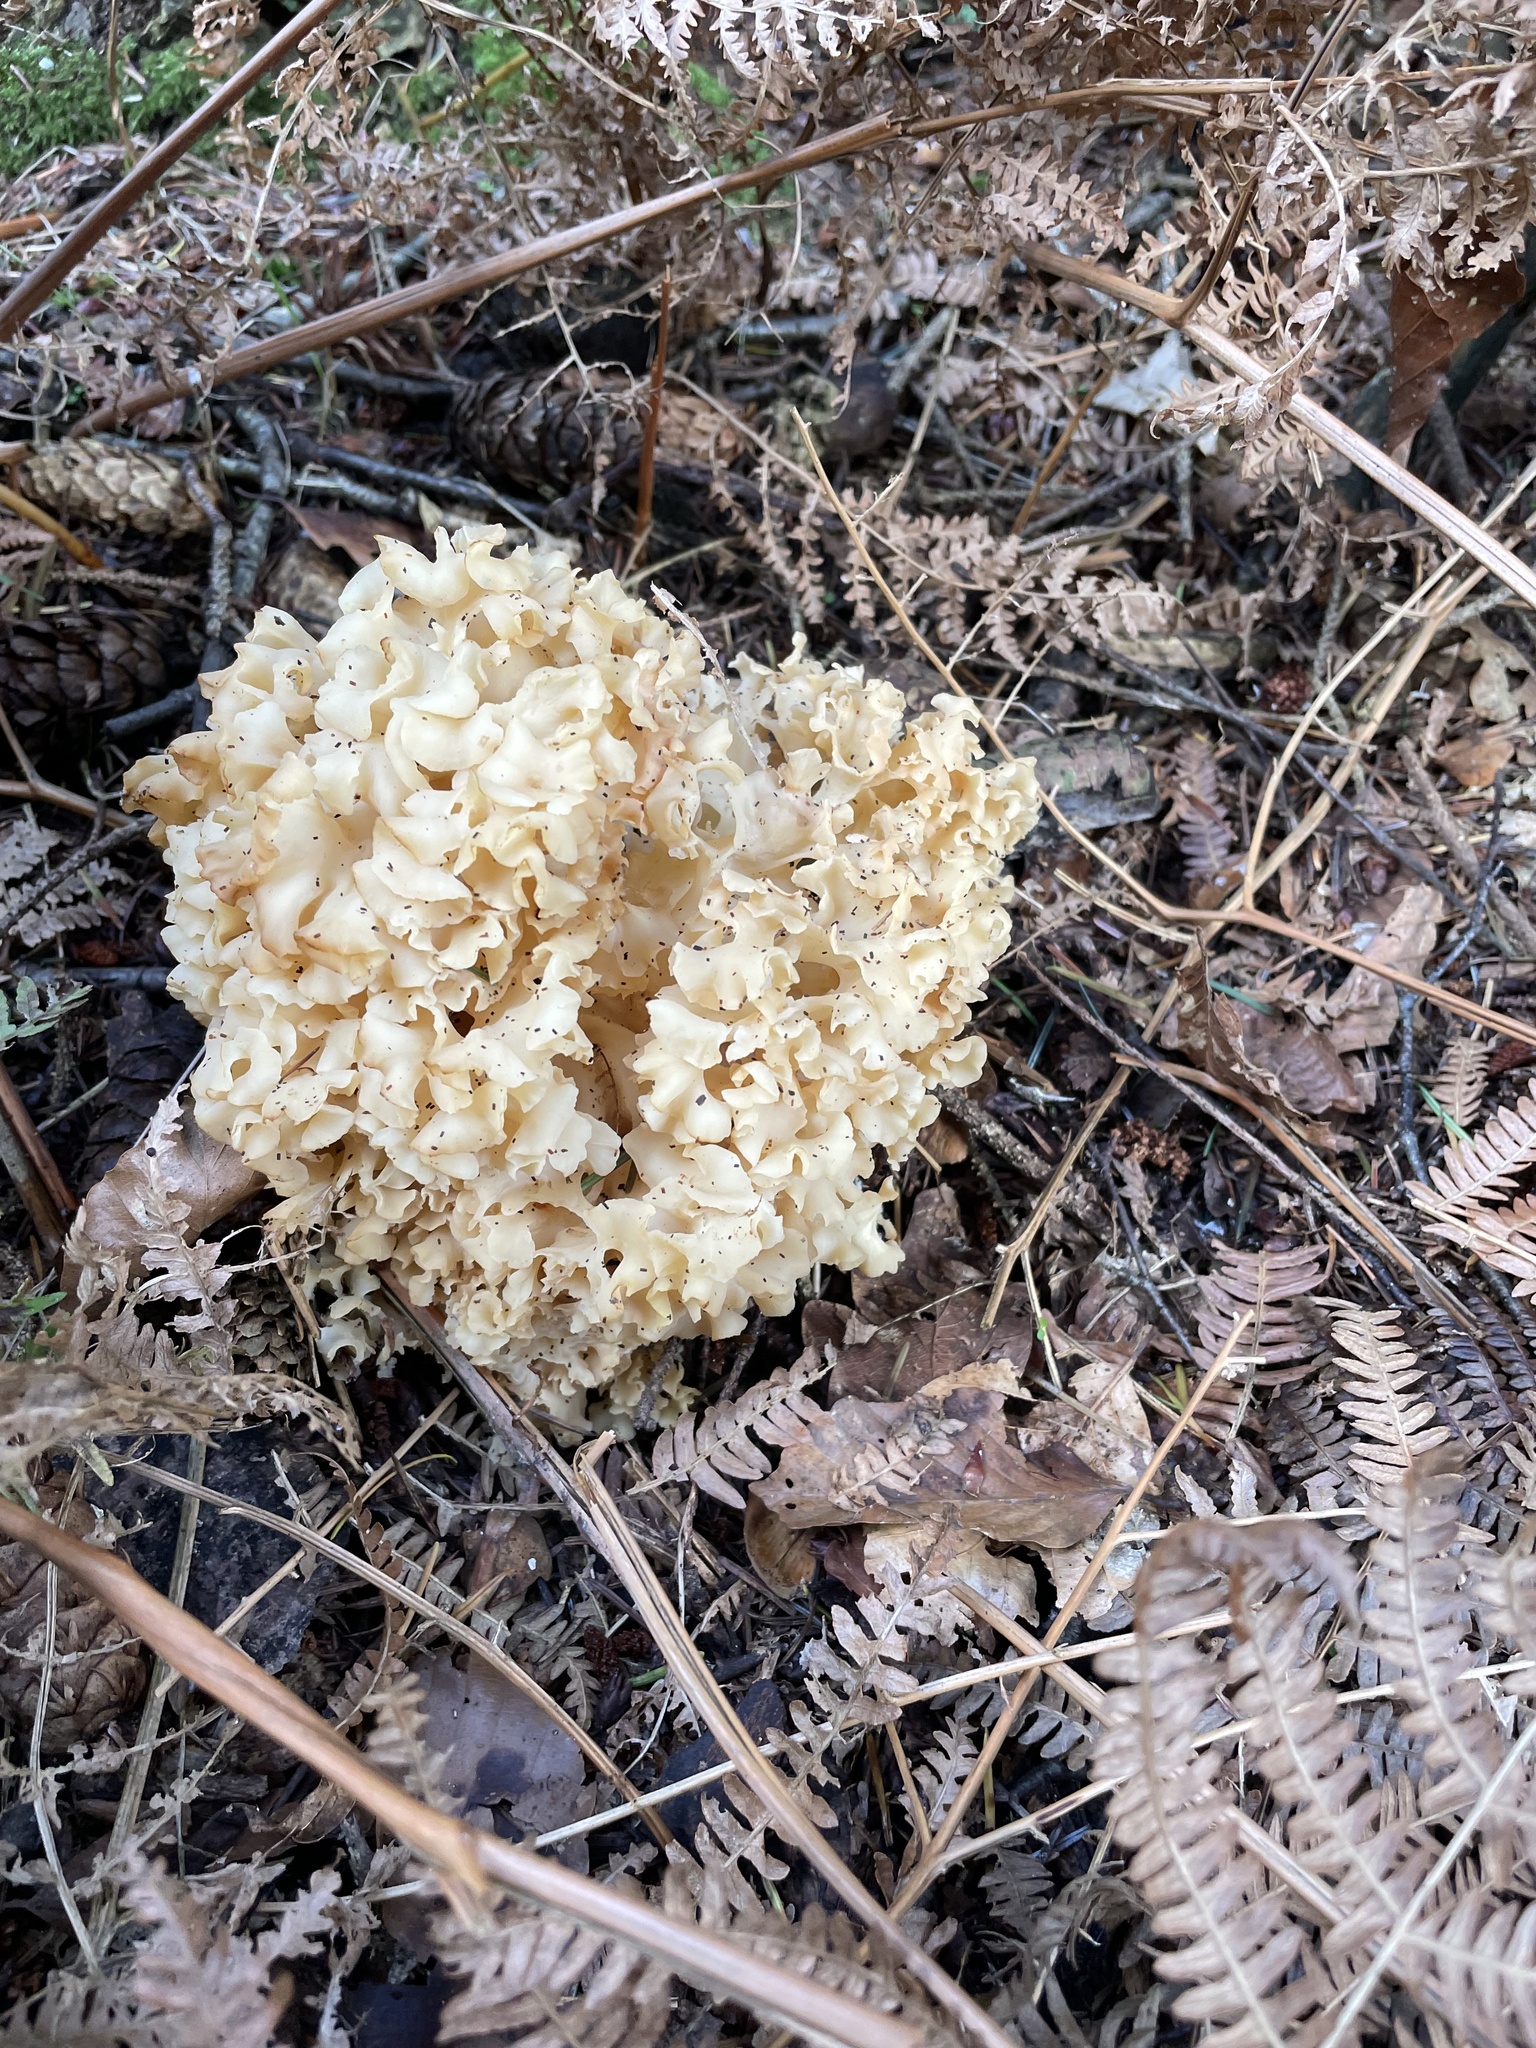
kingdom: Fungi
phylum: Basidiomycota
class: Agaricomycetes
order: Polyporales
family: Sparassidaceae
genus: Sparassis
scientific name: Sparassis crispa
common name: Brain fungus
